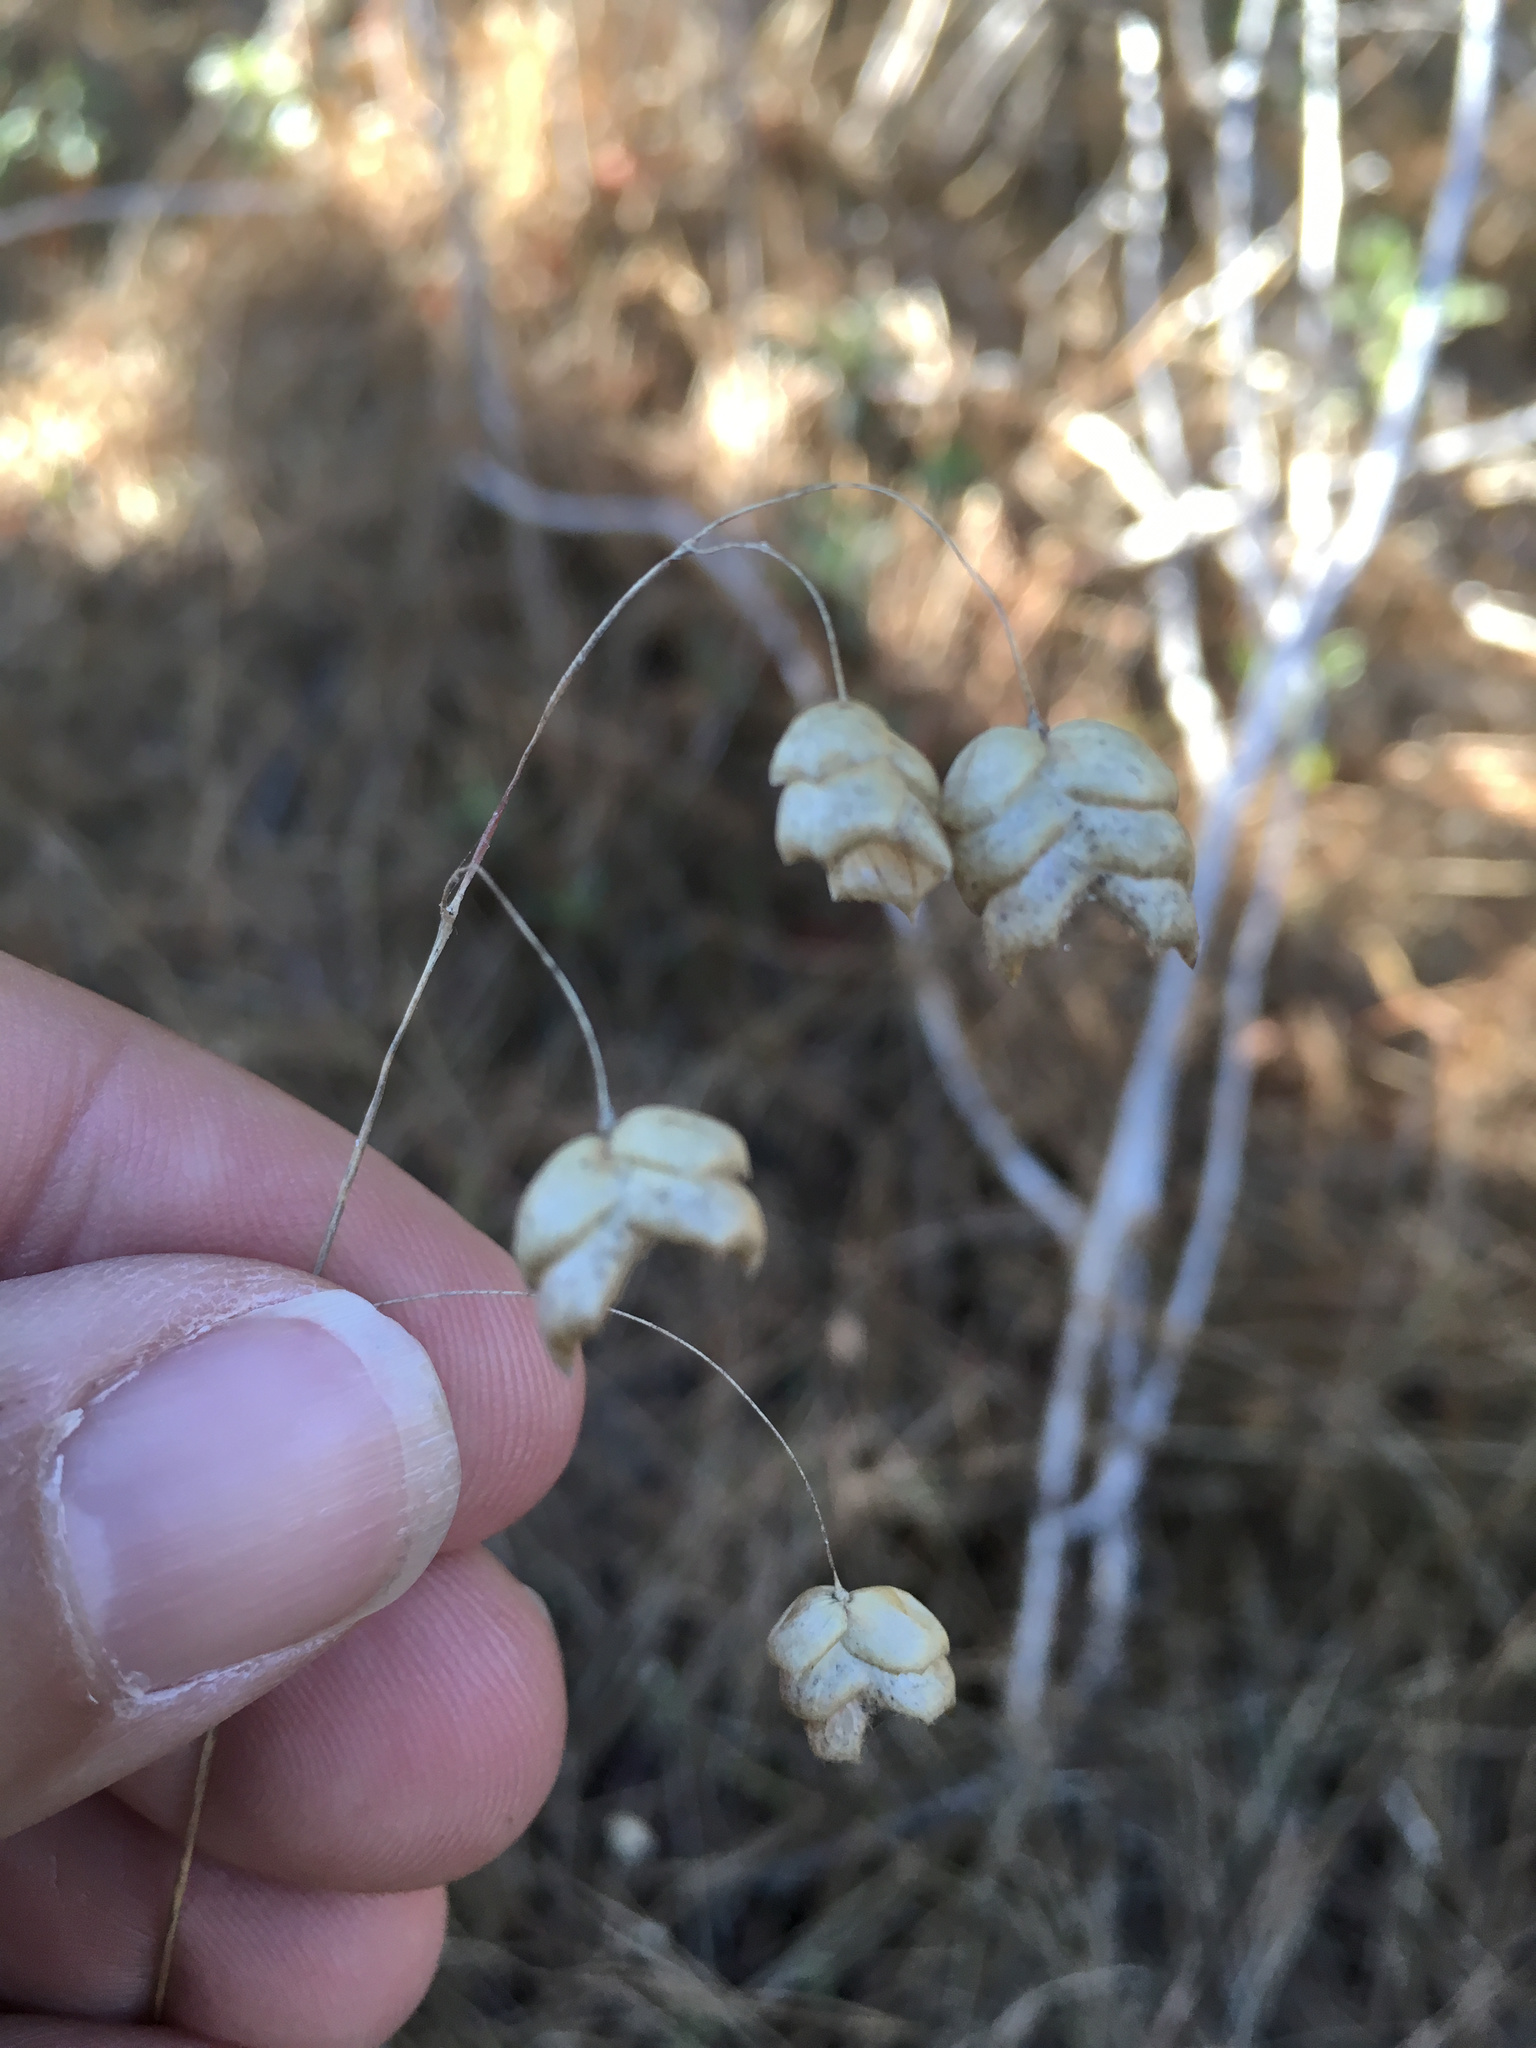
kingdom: Plantae
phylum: Tracheophyta
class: Liliopsida
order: Poales
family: Poaceae
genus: Briza
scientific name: Briza maxima
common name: Big quakinggrass
